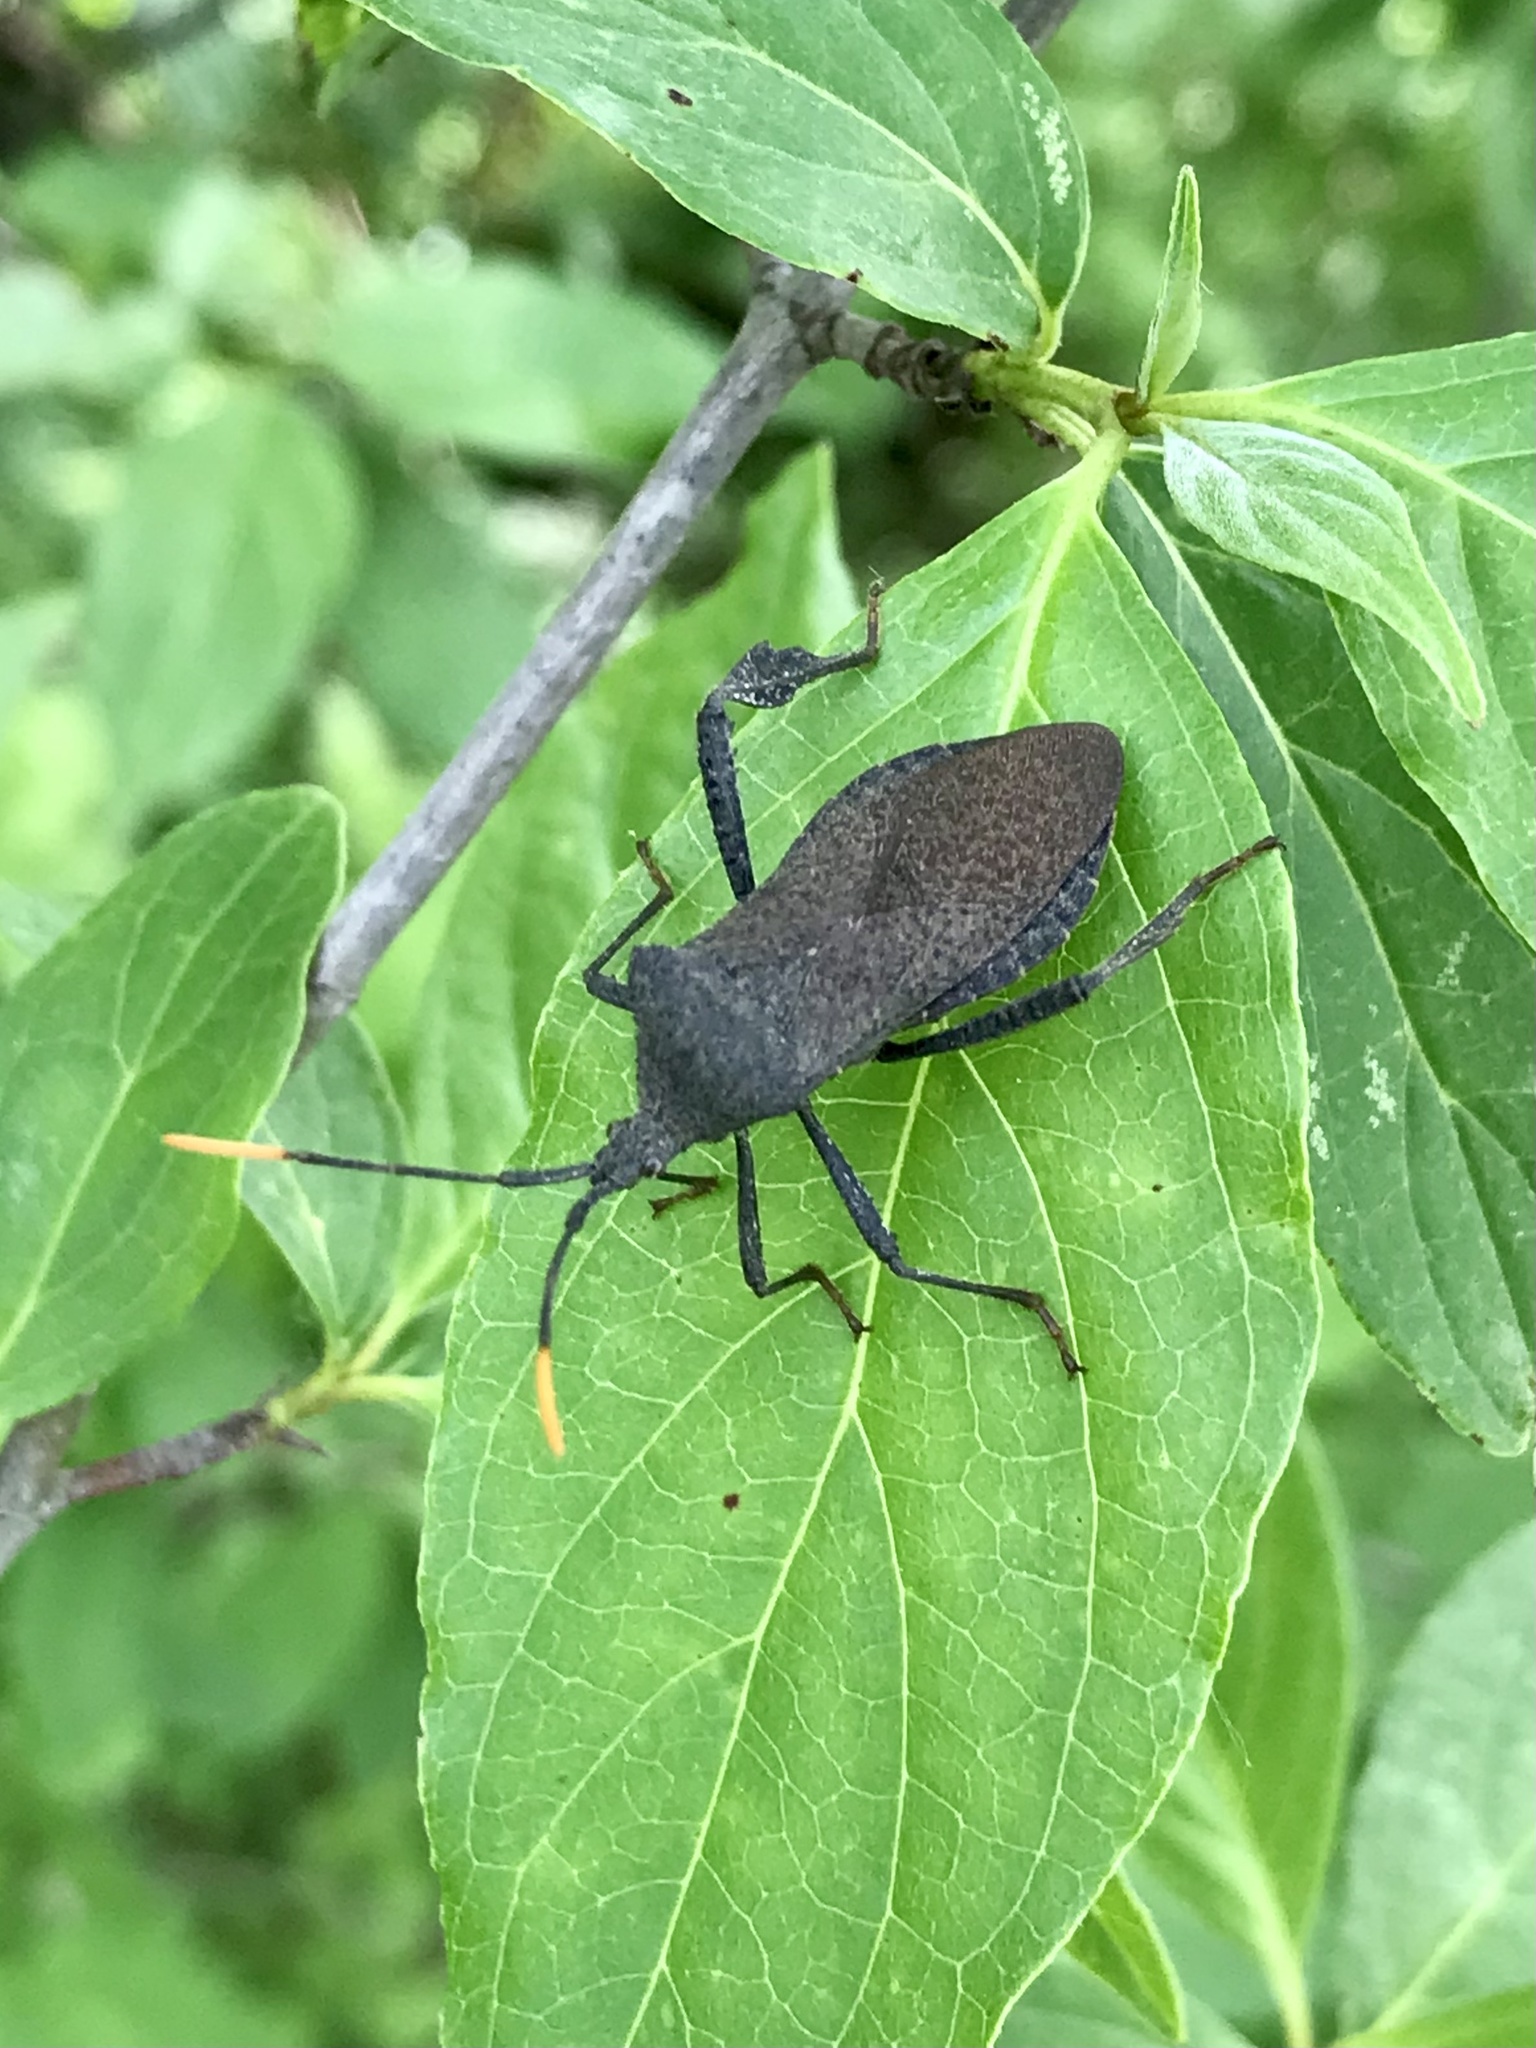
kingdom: Animalia
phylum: Arthropoda
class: Insecta
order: Hemiptera
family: Coreidae
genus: Acanthocephala
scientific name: Acanthocephala terminalis
